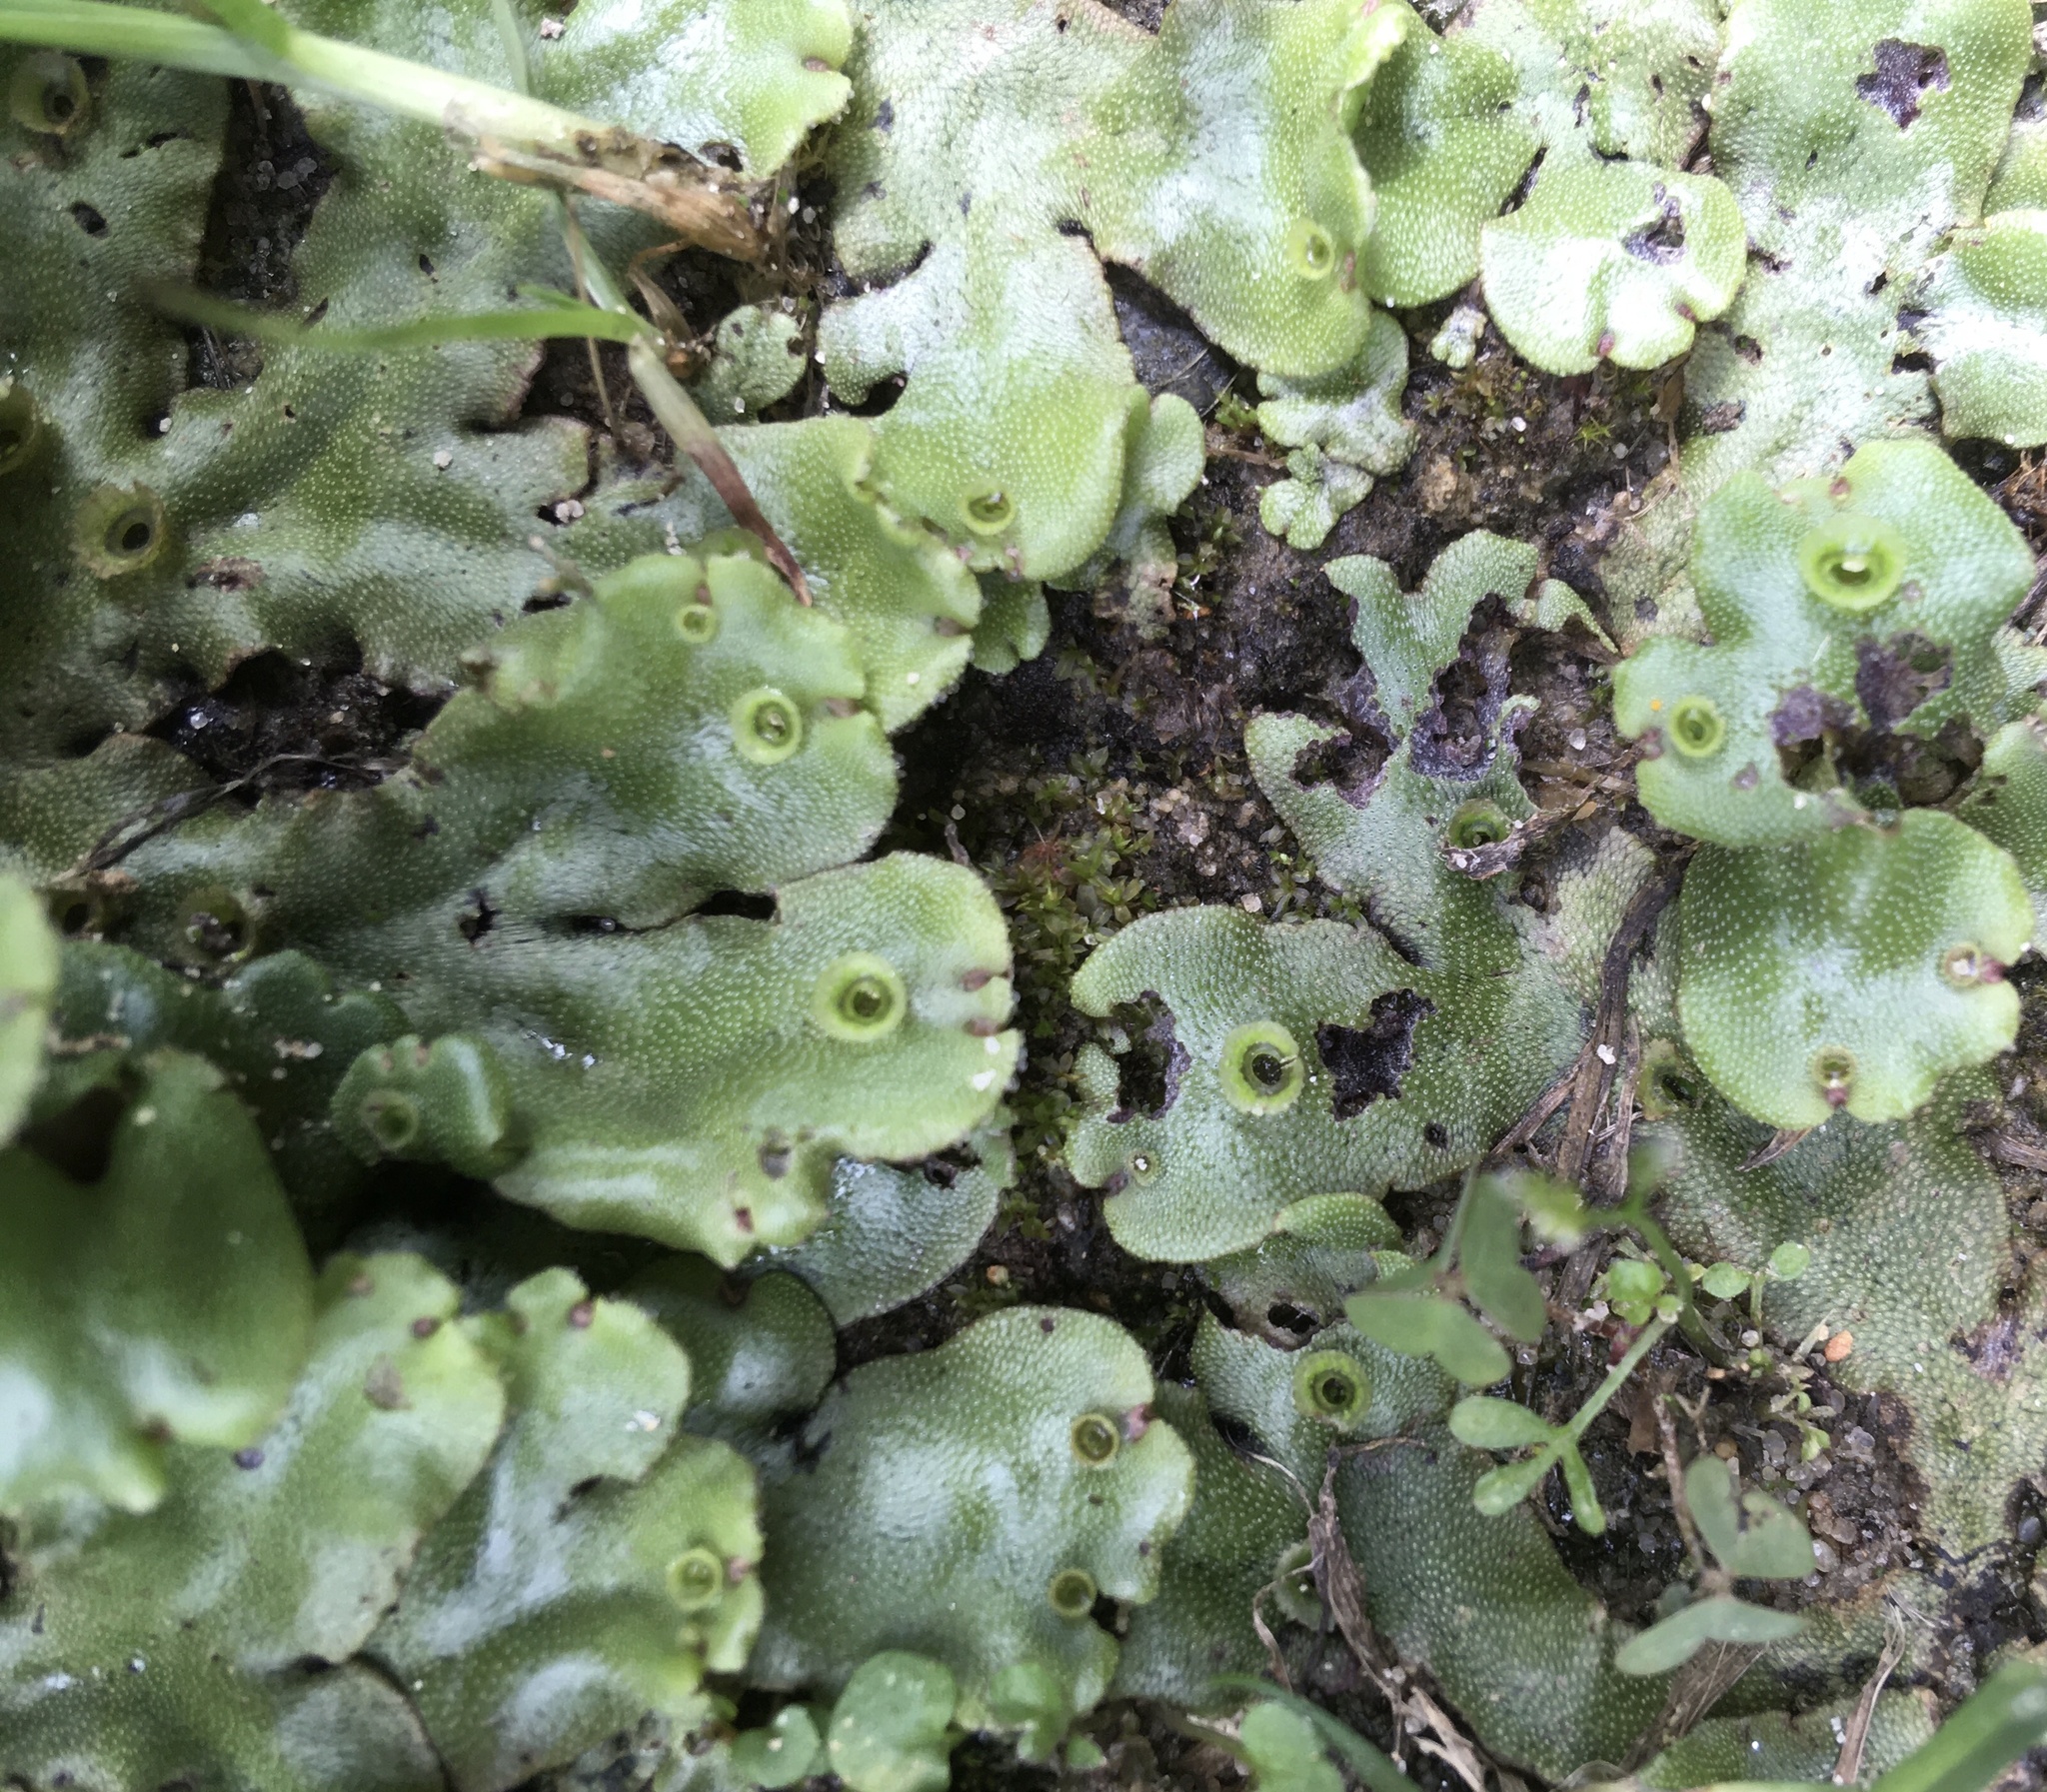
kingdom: Plantae
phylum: Marchantiophyta
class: Marchantiopsida
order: Marchantiales
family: Marchantiaceae
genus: Marchantia
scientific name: Marchantia polymorpha
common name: Common liverwort
